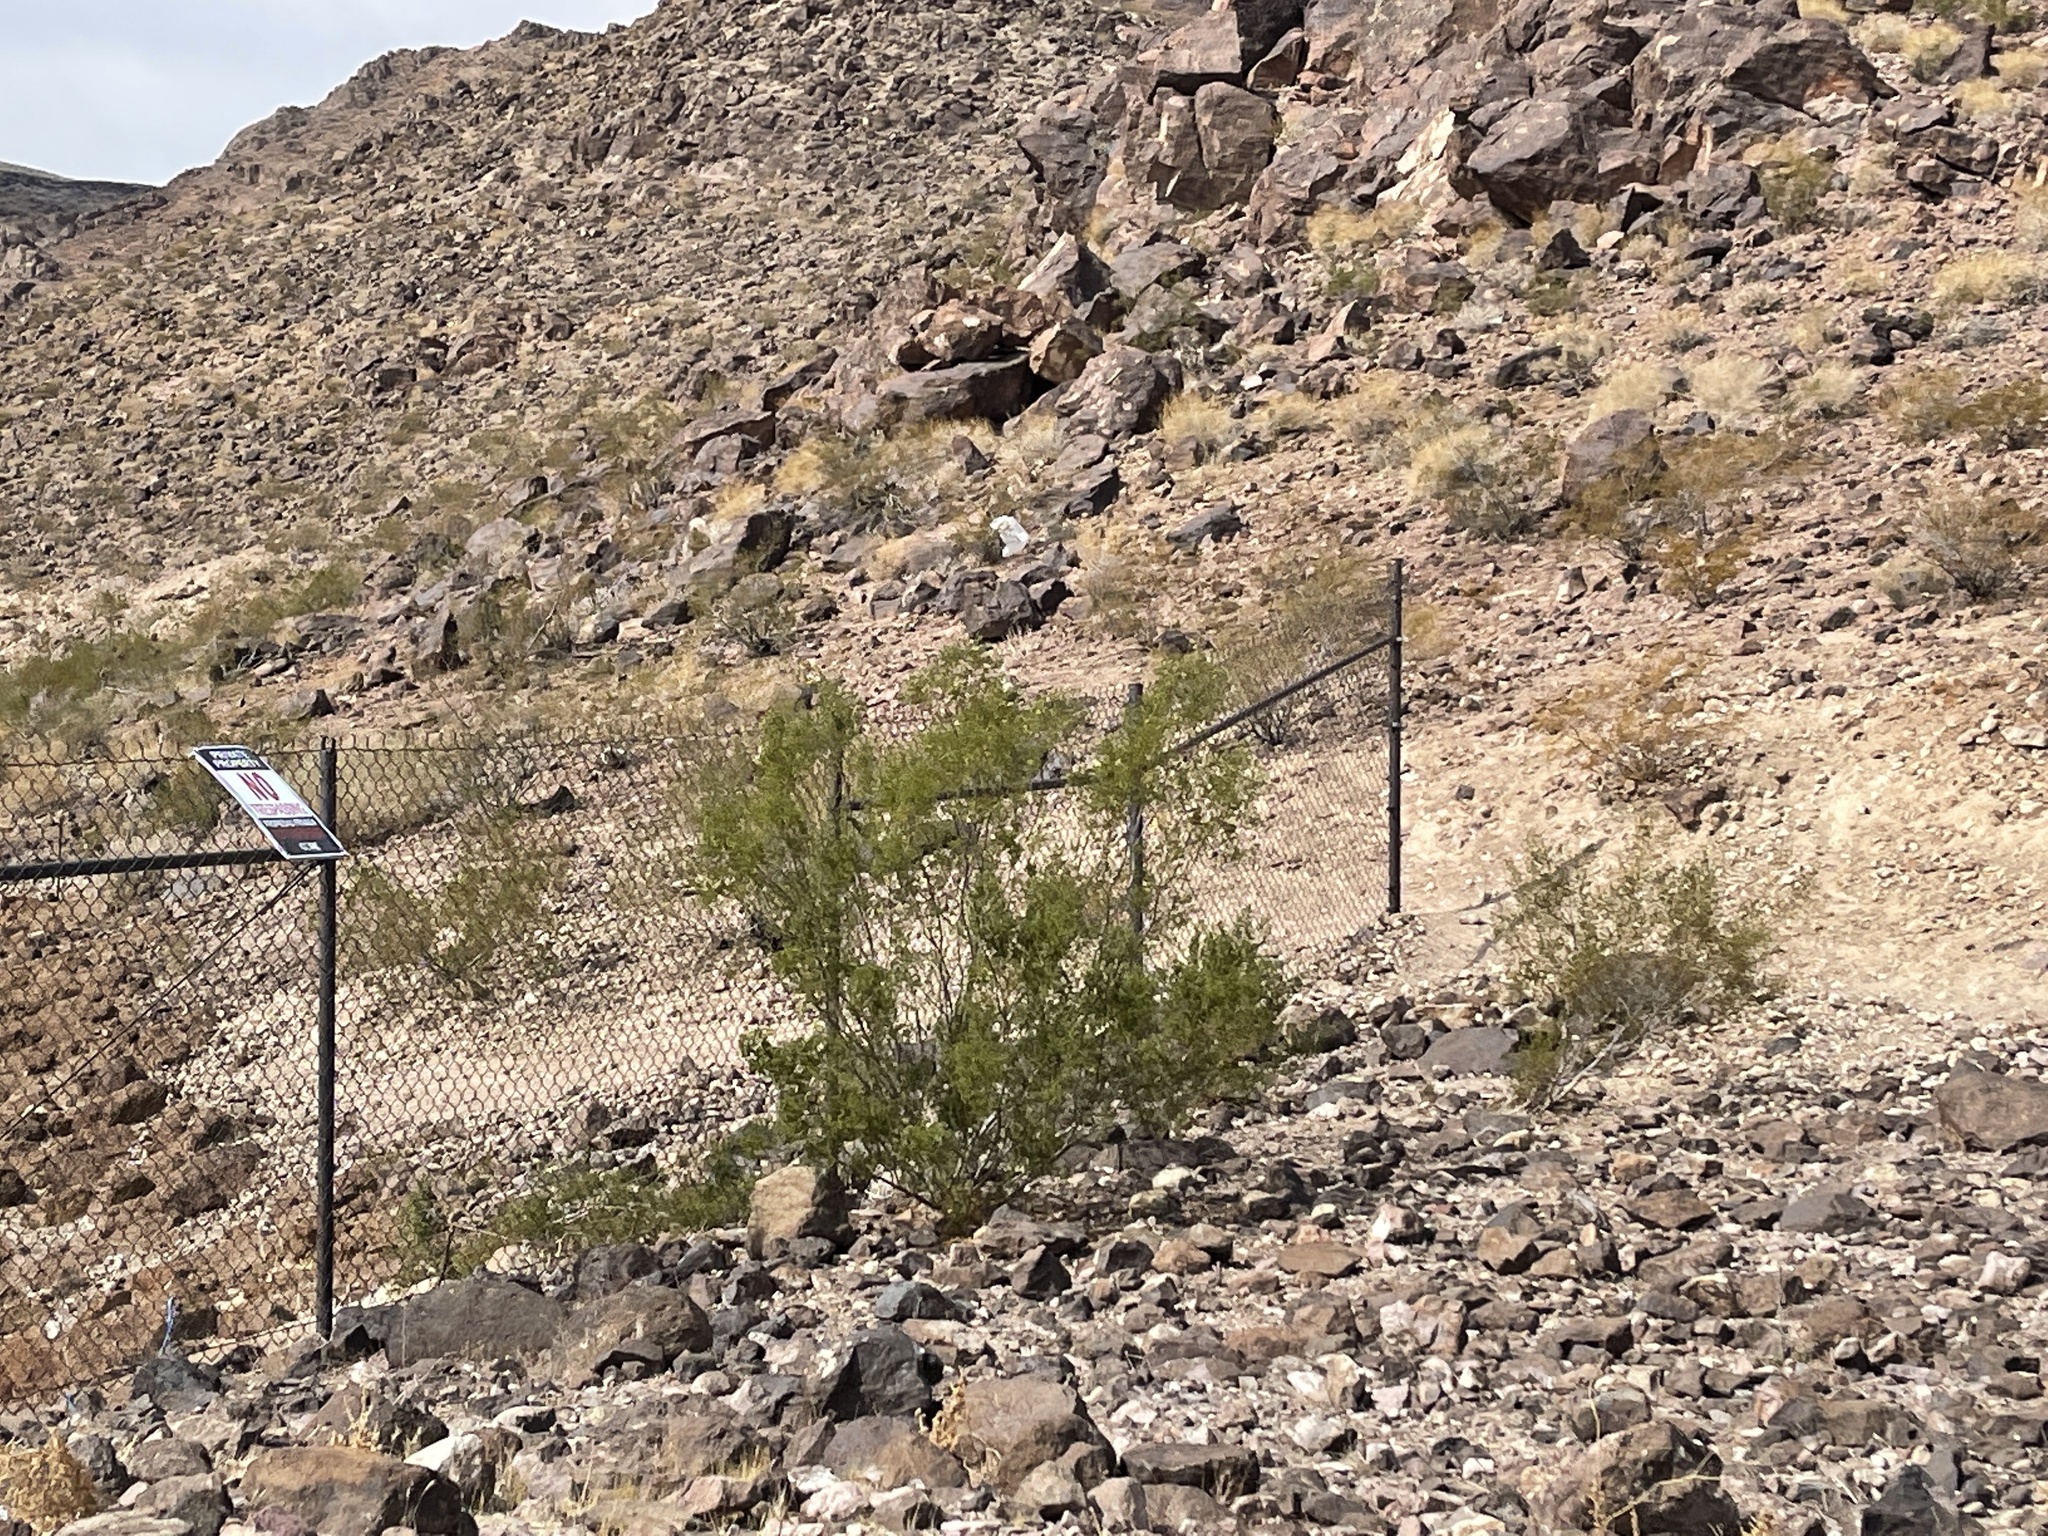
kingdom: Plantae
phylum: Tracheophyta
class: Magnoliopsida
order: Zygophyllales
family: Zygophyllaceae
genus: Larrea
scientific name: Larrea tridentata
